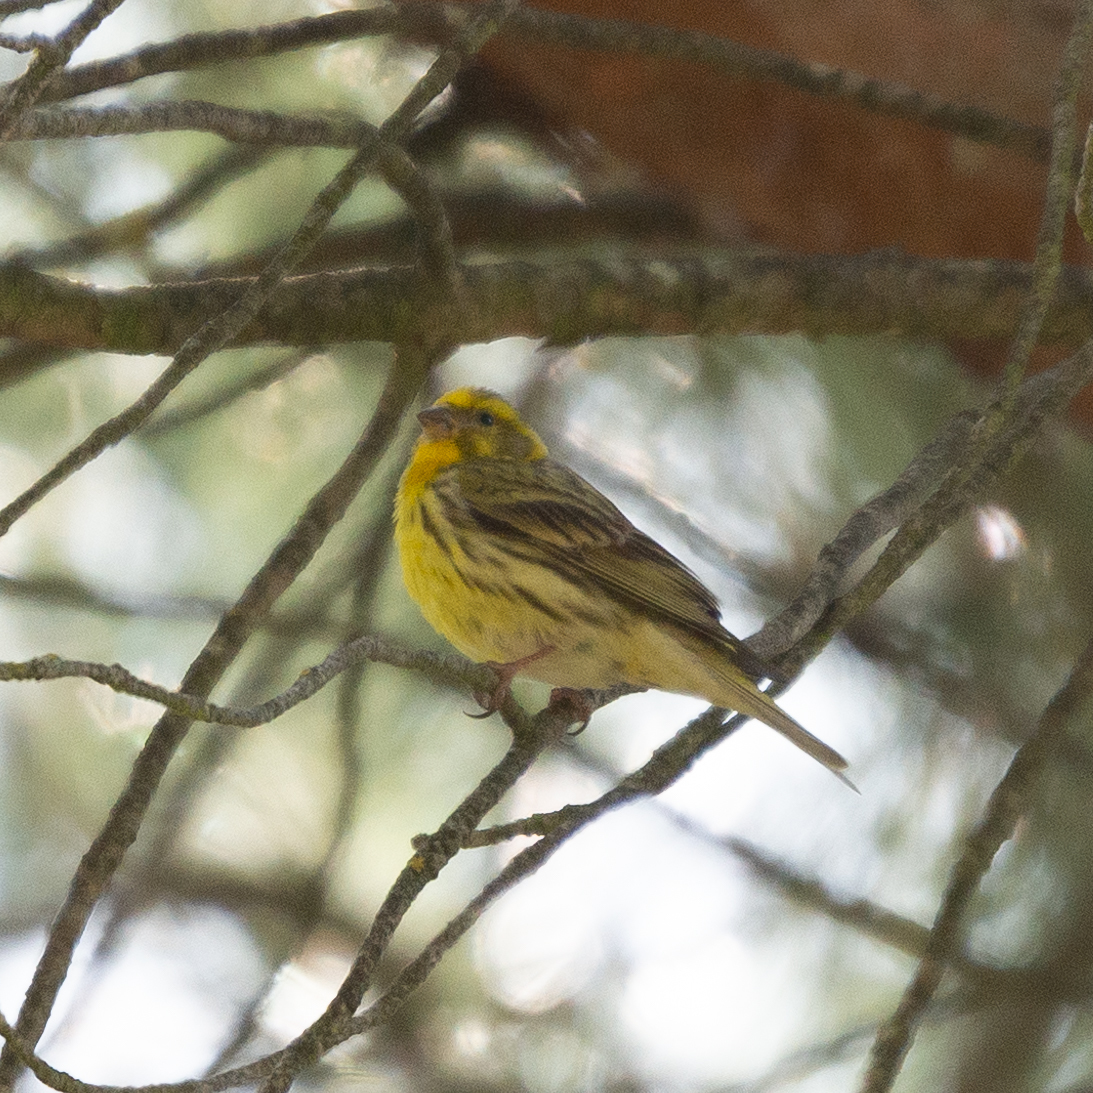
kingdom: Animalia
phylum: Chordata
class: Aves
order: Passeriformes
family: Fringillidae
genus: Serinus
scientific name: Serinus serinus
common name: European serin
